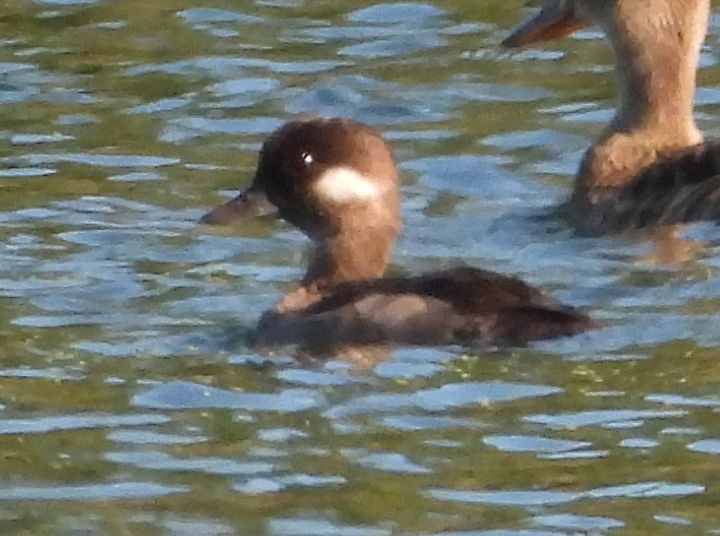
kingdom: Animalia
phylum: Chordata
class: Aves
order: Anseriformes
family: Anatidae
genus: Bucephala
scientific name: Bucephala albeola
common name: Bufflehead
